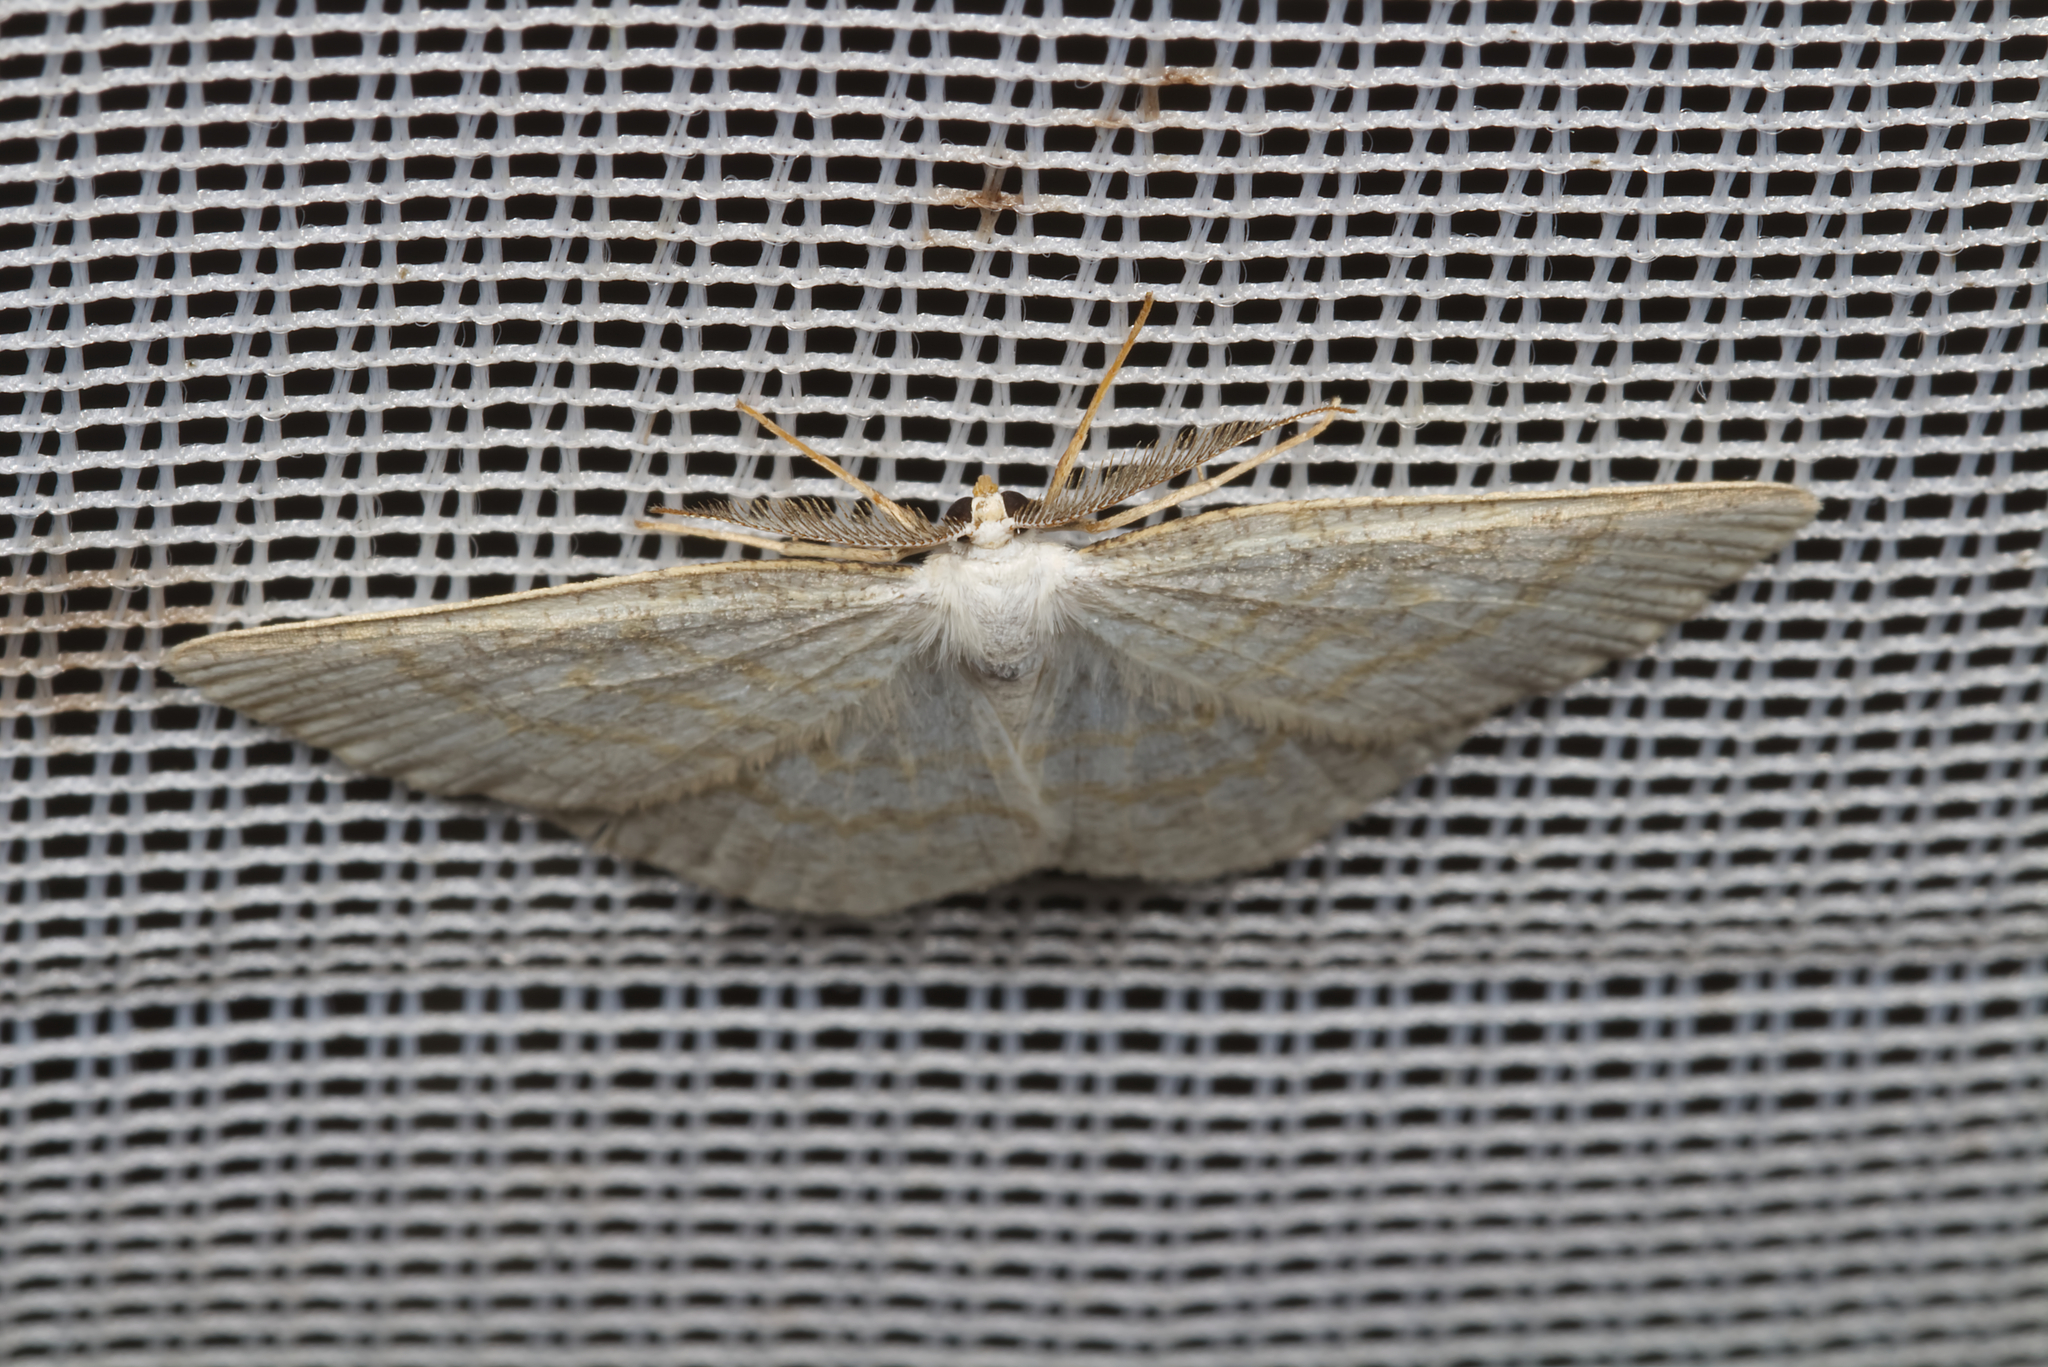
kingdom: Animalia
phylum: Arthropoda
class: Insecta
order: Lepidoptera
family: Geometridae
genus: Cabera
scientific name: Cabera exanthemata
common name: Common wave
